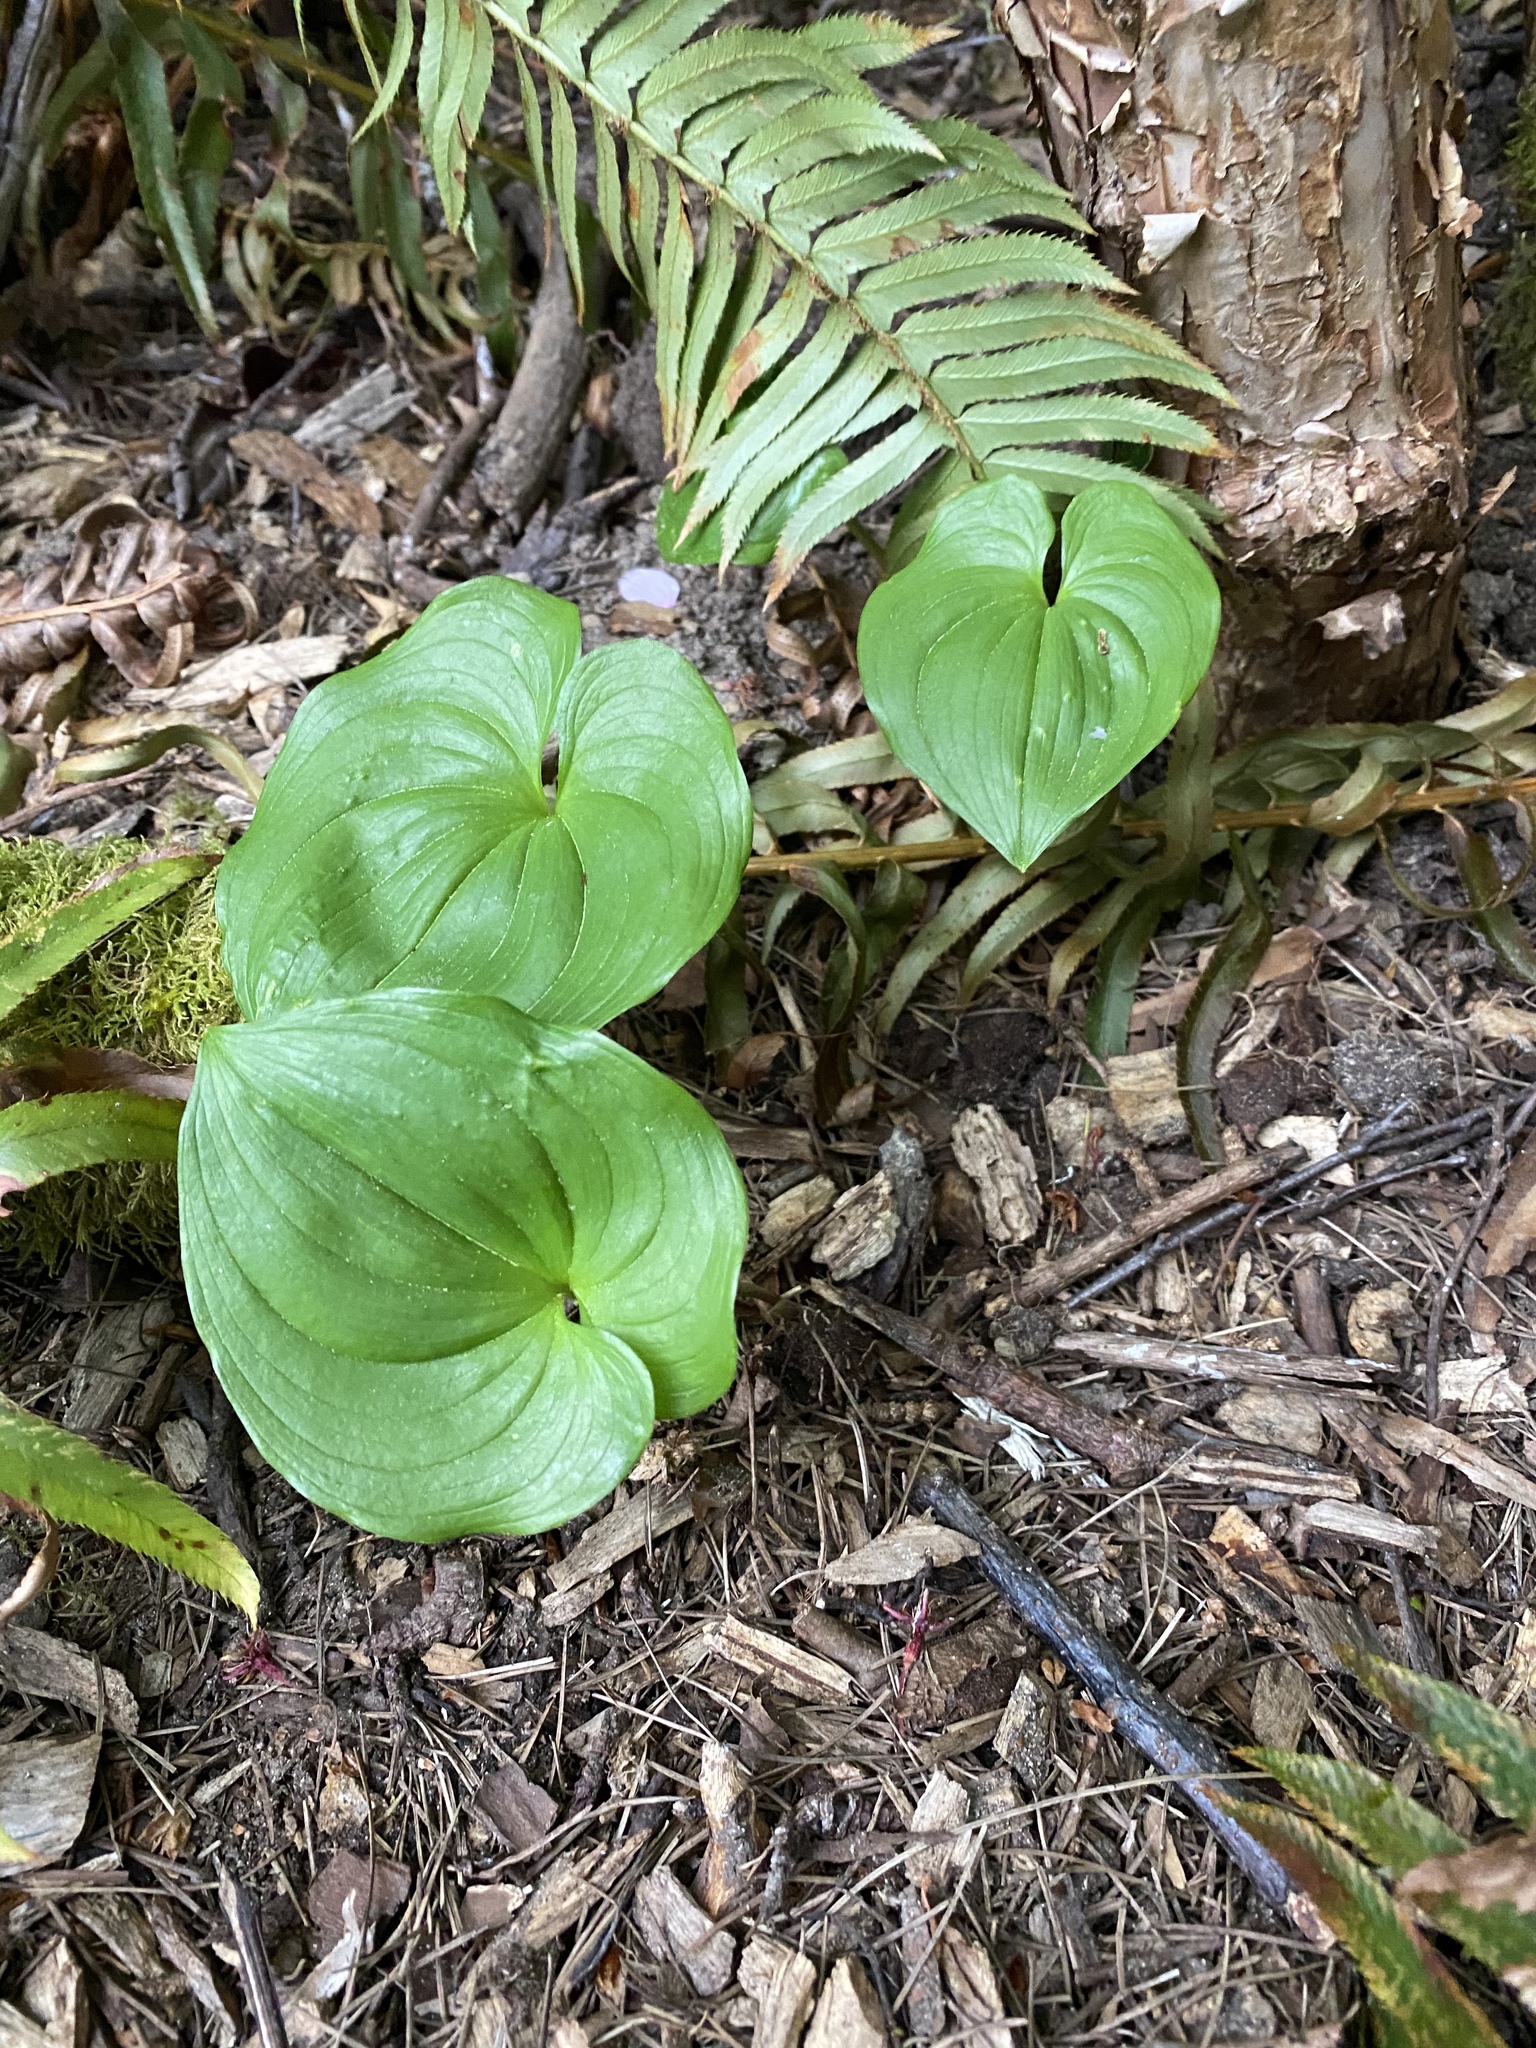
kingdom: Plantae
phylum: Tracheophyta
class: Liliopsida
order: Asparagales
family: Asparagaceae
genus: Maianthemum
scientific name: Maianthemum dilatatum
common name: False lily-of-the-valley
